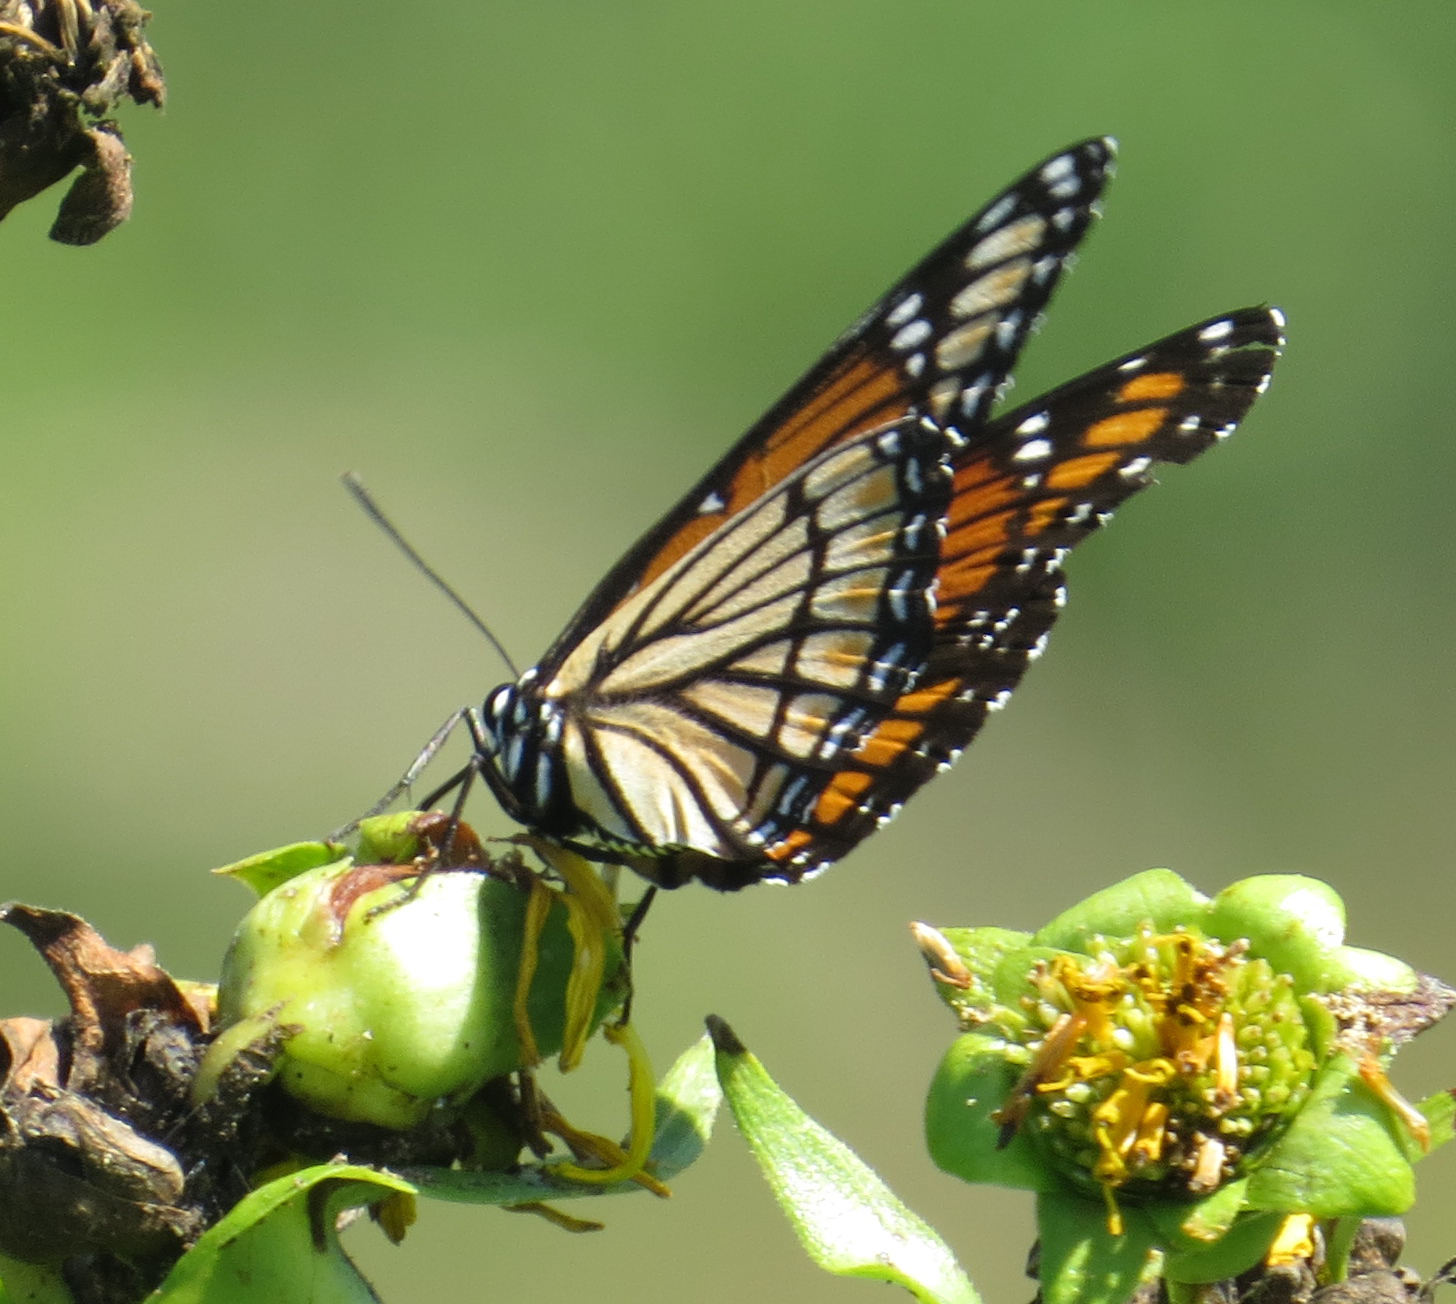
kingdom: Animalia
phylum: Arthropoda
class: Insecta
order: Lepidoptera
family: Nymphalidae
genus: Limenitis
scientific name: Limenitis archippus
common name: Viceroy
